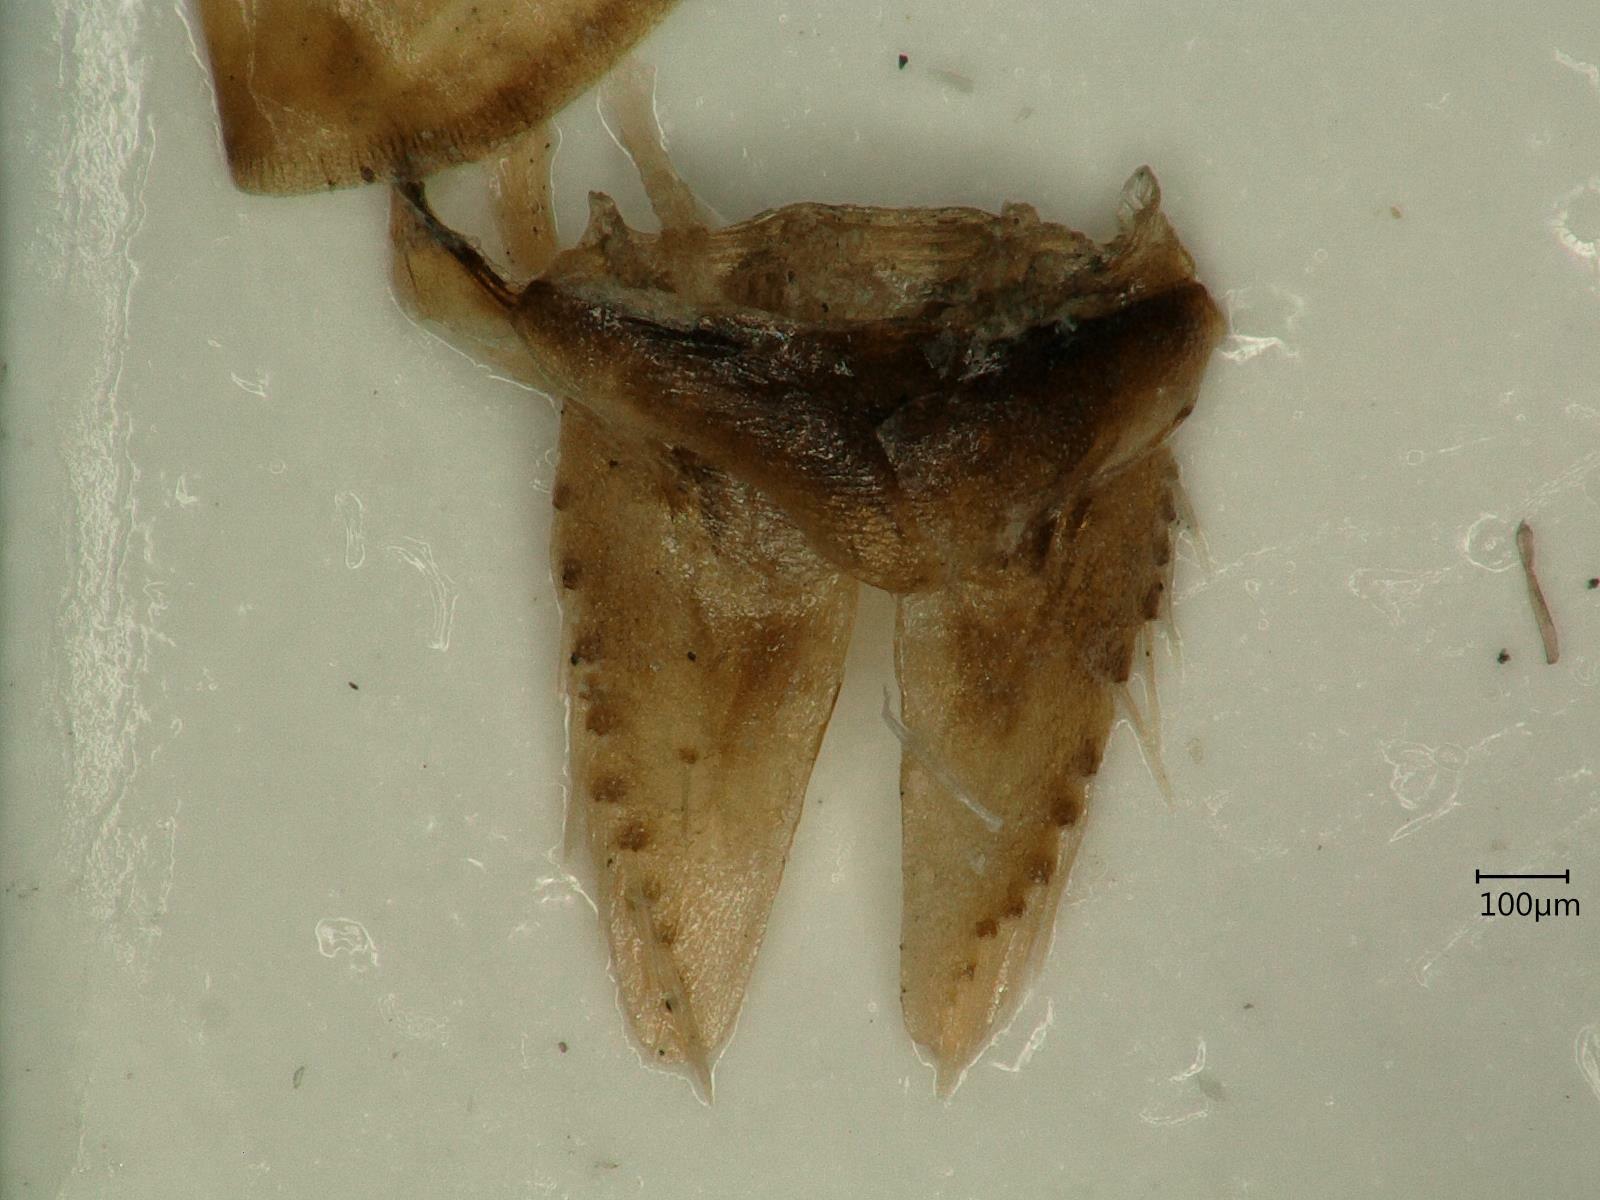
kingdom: Animalia
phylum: Arthropoda
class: Insecta
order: Hemiptera
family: Cicadellidae
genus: Allygus
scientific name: Allygus modestus
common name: Leafhopper
